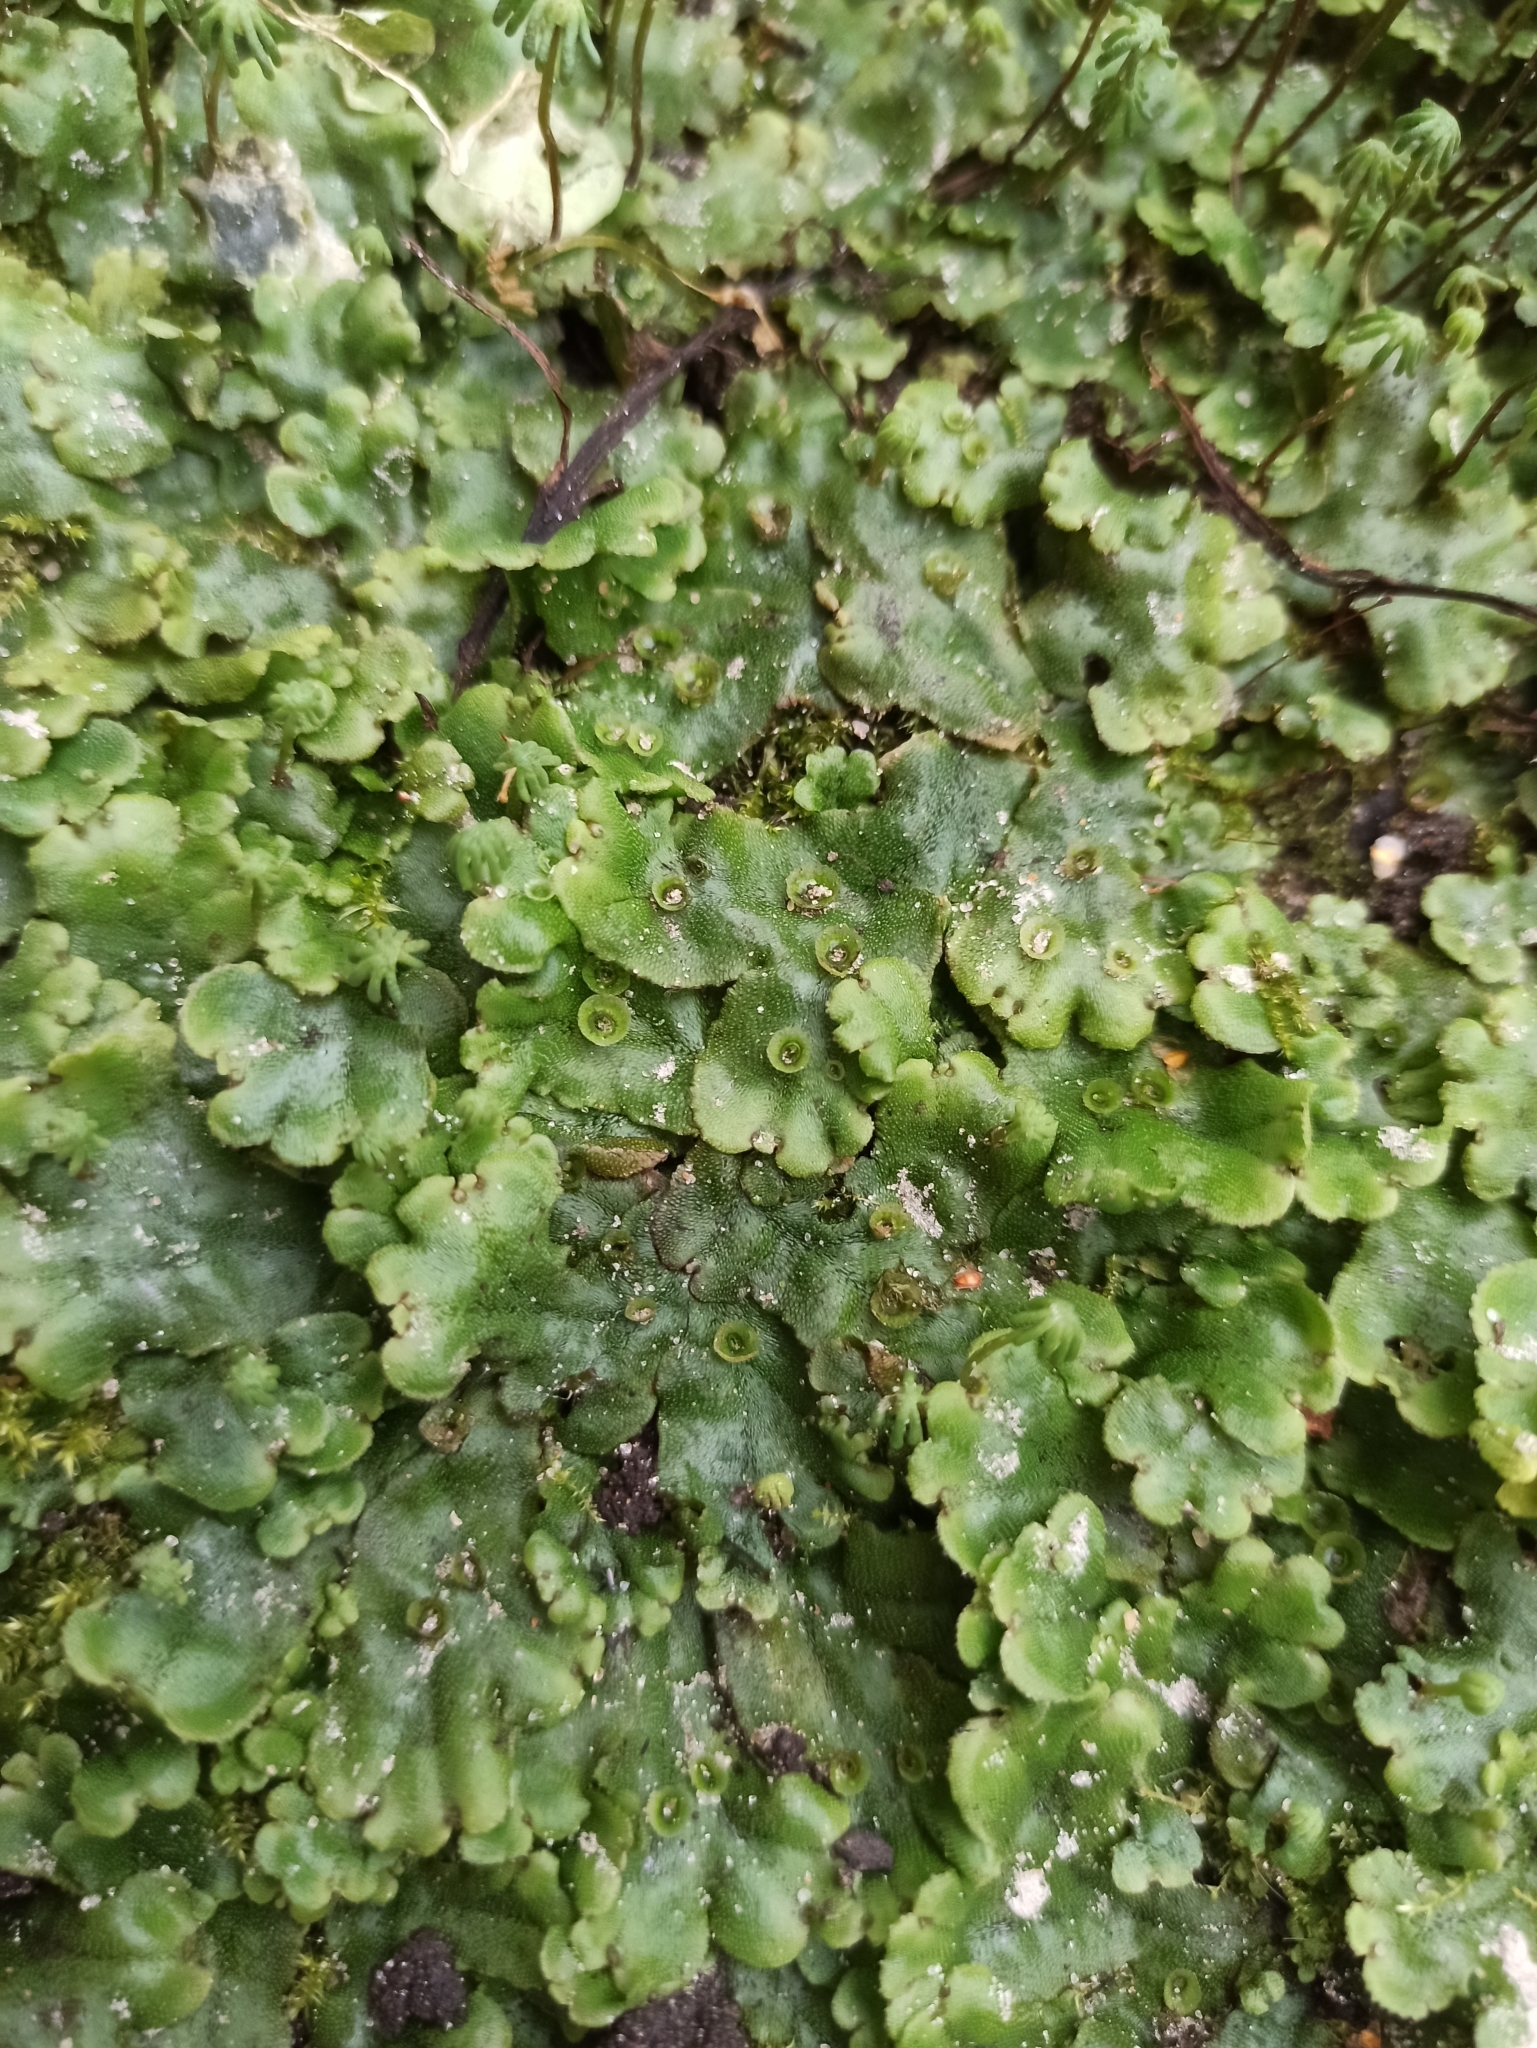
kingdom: Plantae
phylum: Marchantiophyta
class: Marchantiopsida
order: Marchantiales
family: Marchantiaceae
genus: Marchantia
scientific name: Marchantia polymorpha
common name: Common liverwort
